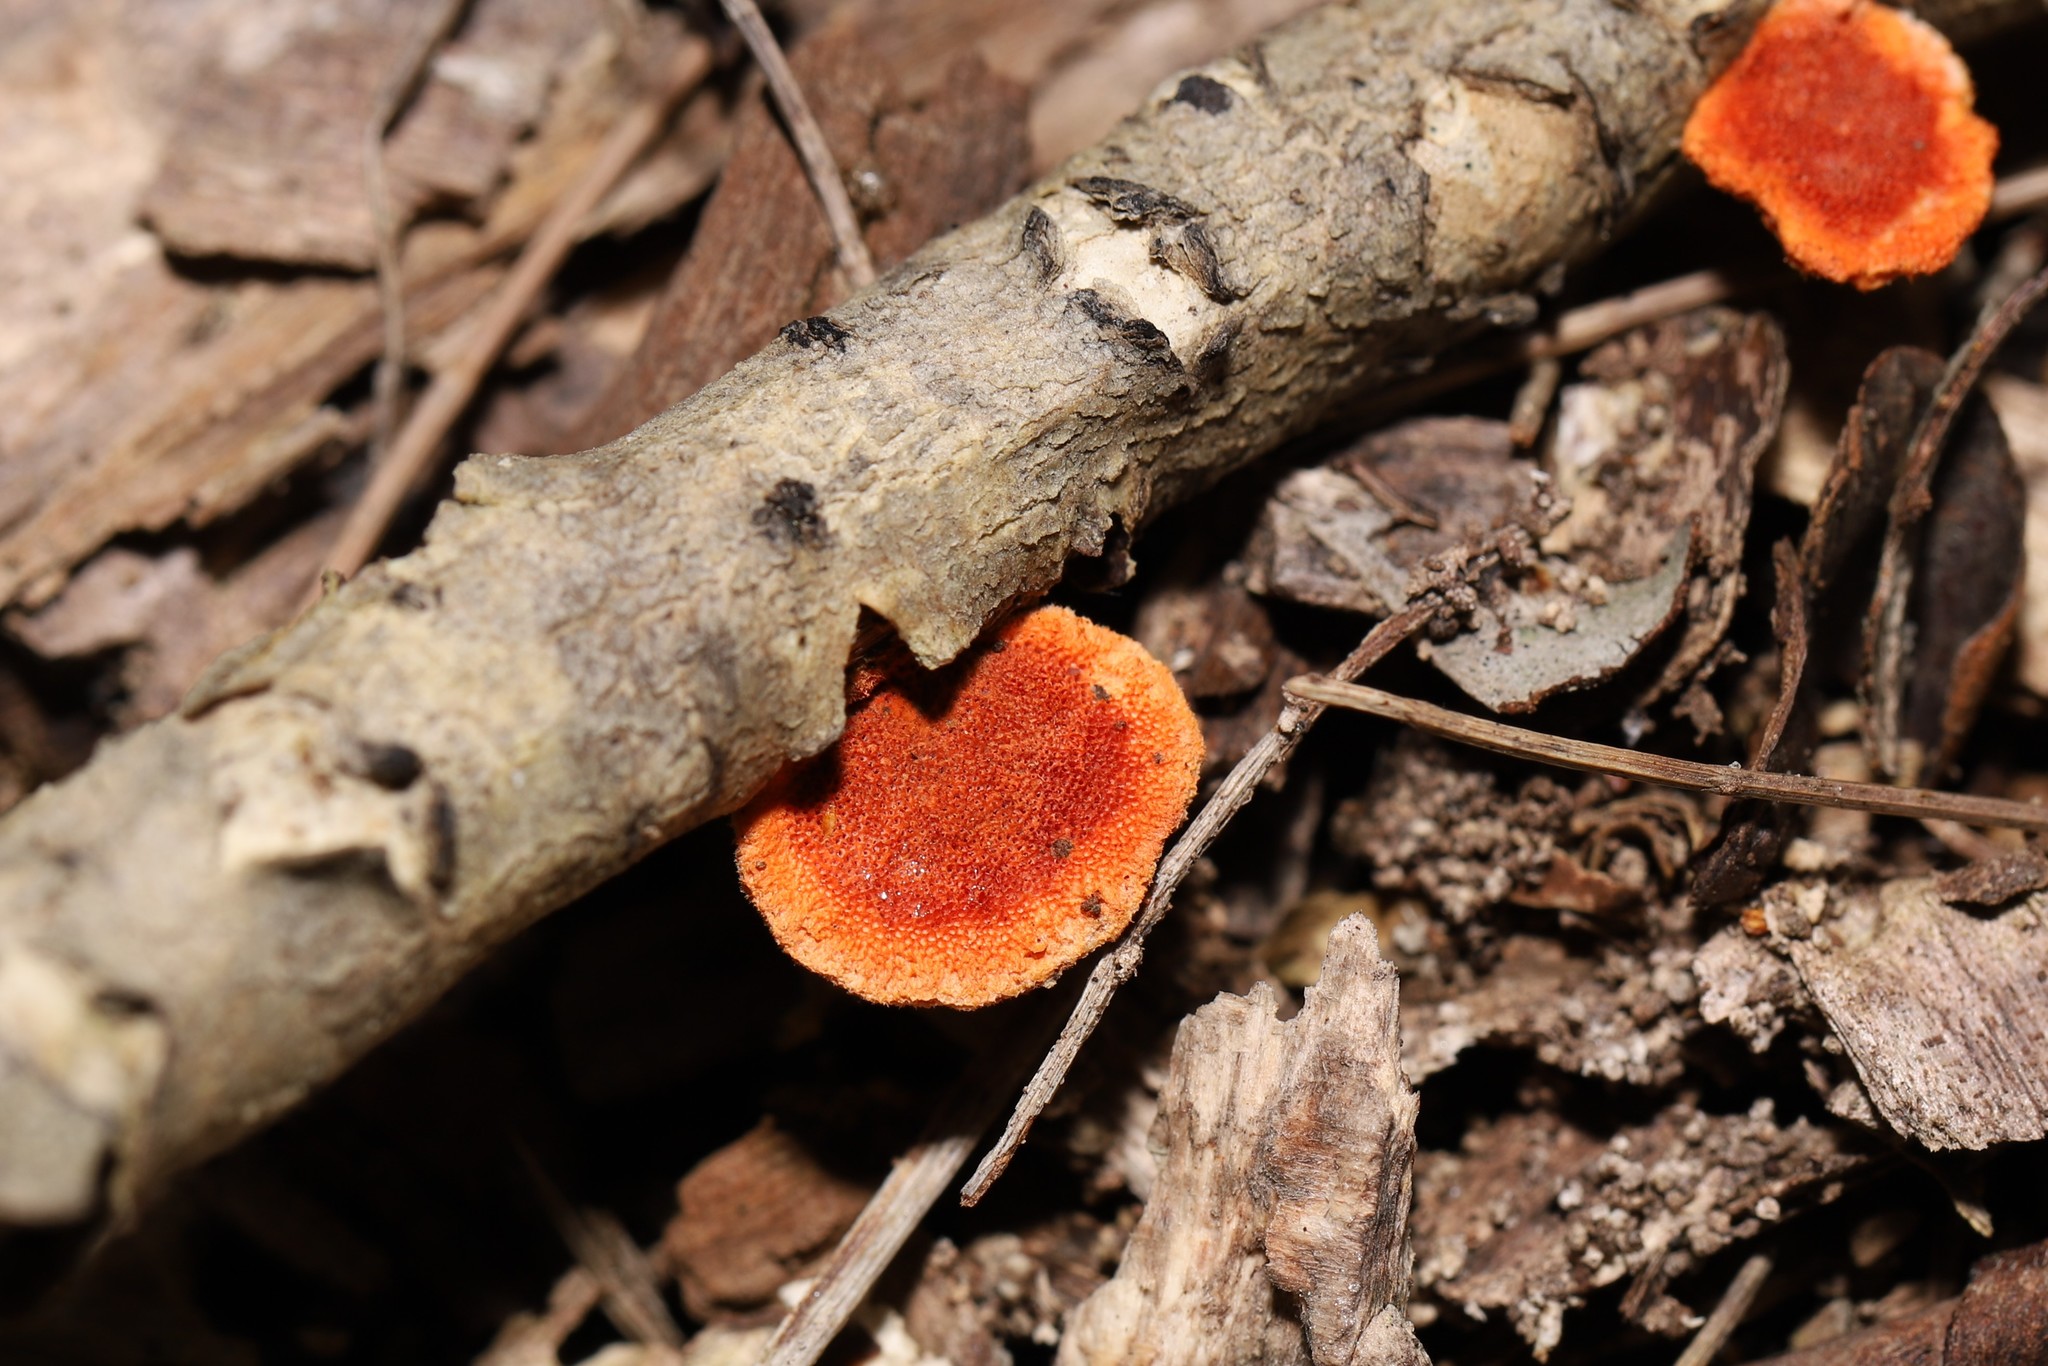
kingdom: Fungi
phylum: Basidiomycota
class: Agaricomycetes
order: Polyporales
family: Polyporaceae
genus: Trametes
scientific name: Trametes coccinea
